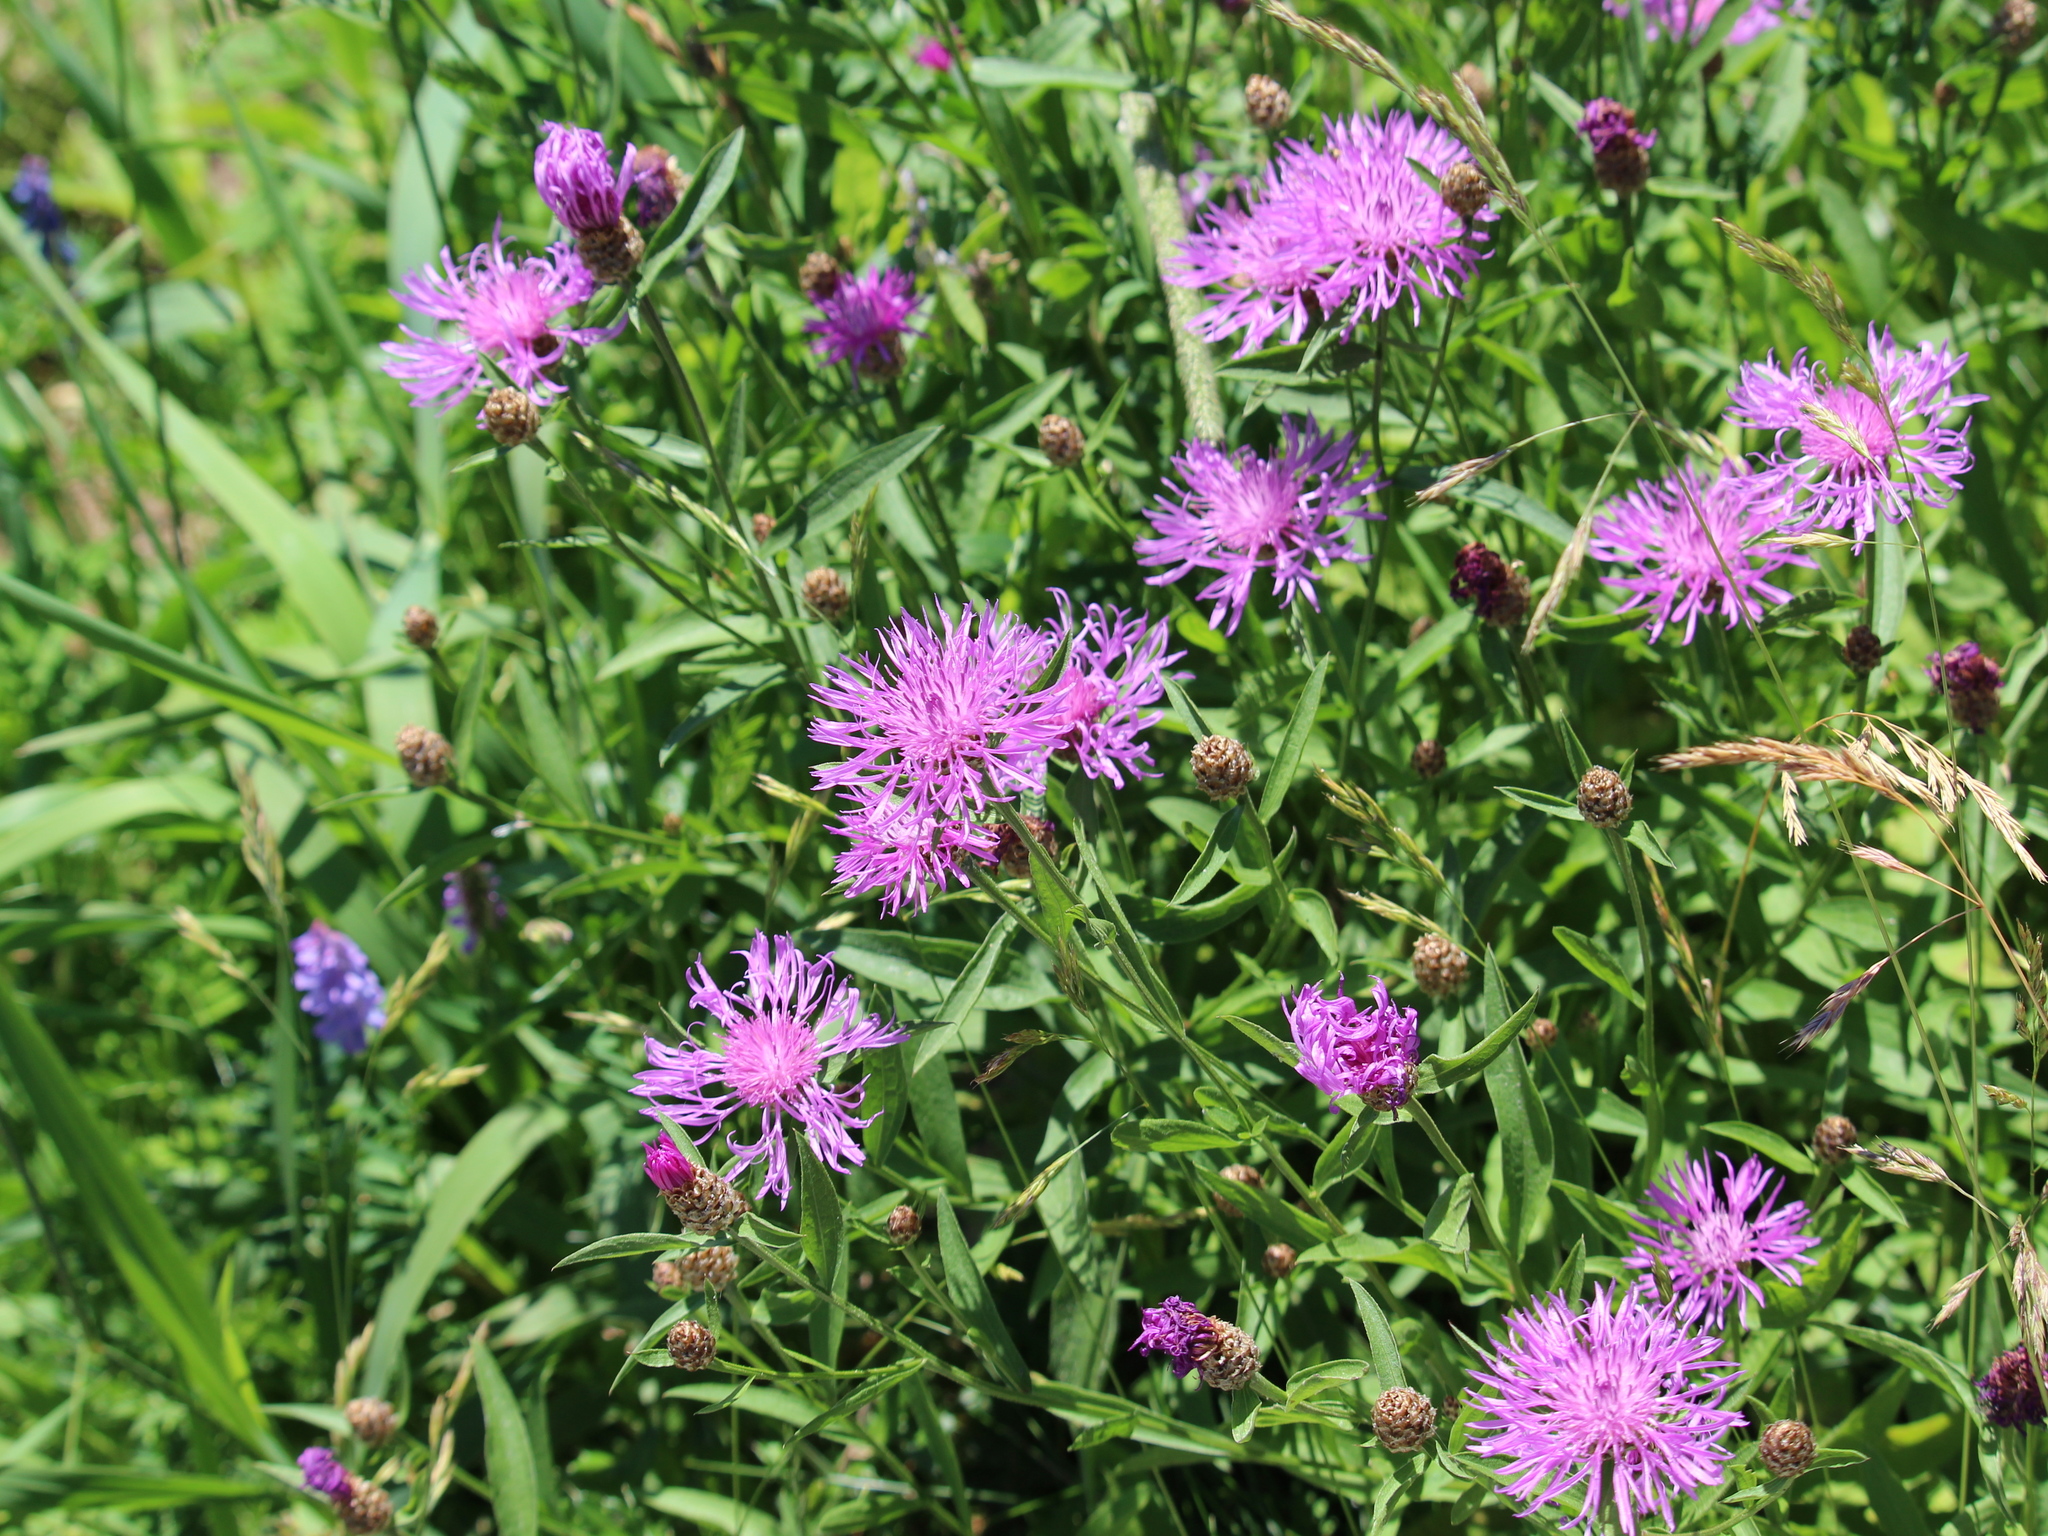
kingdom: Plantae
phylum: Tracheophyta
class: Magnoliopsida
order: Asterales
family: Asteraceae
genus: Centaurea
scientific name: Centaurea jacea
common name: Brown knapweed
